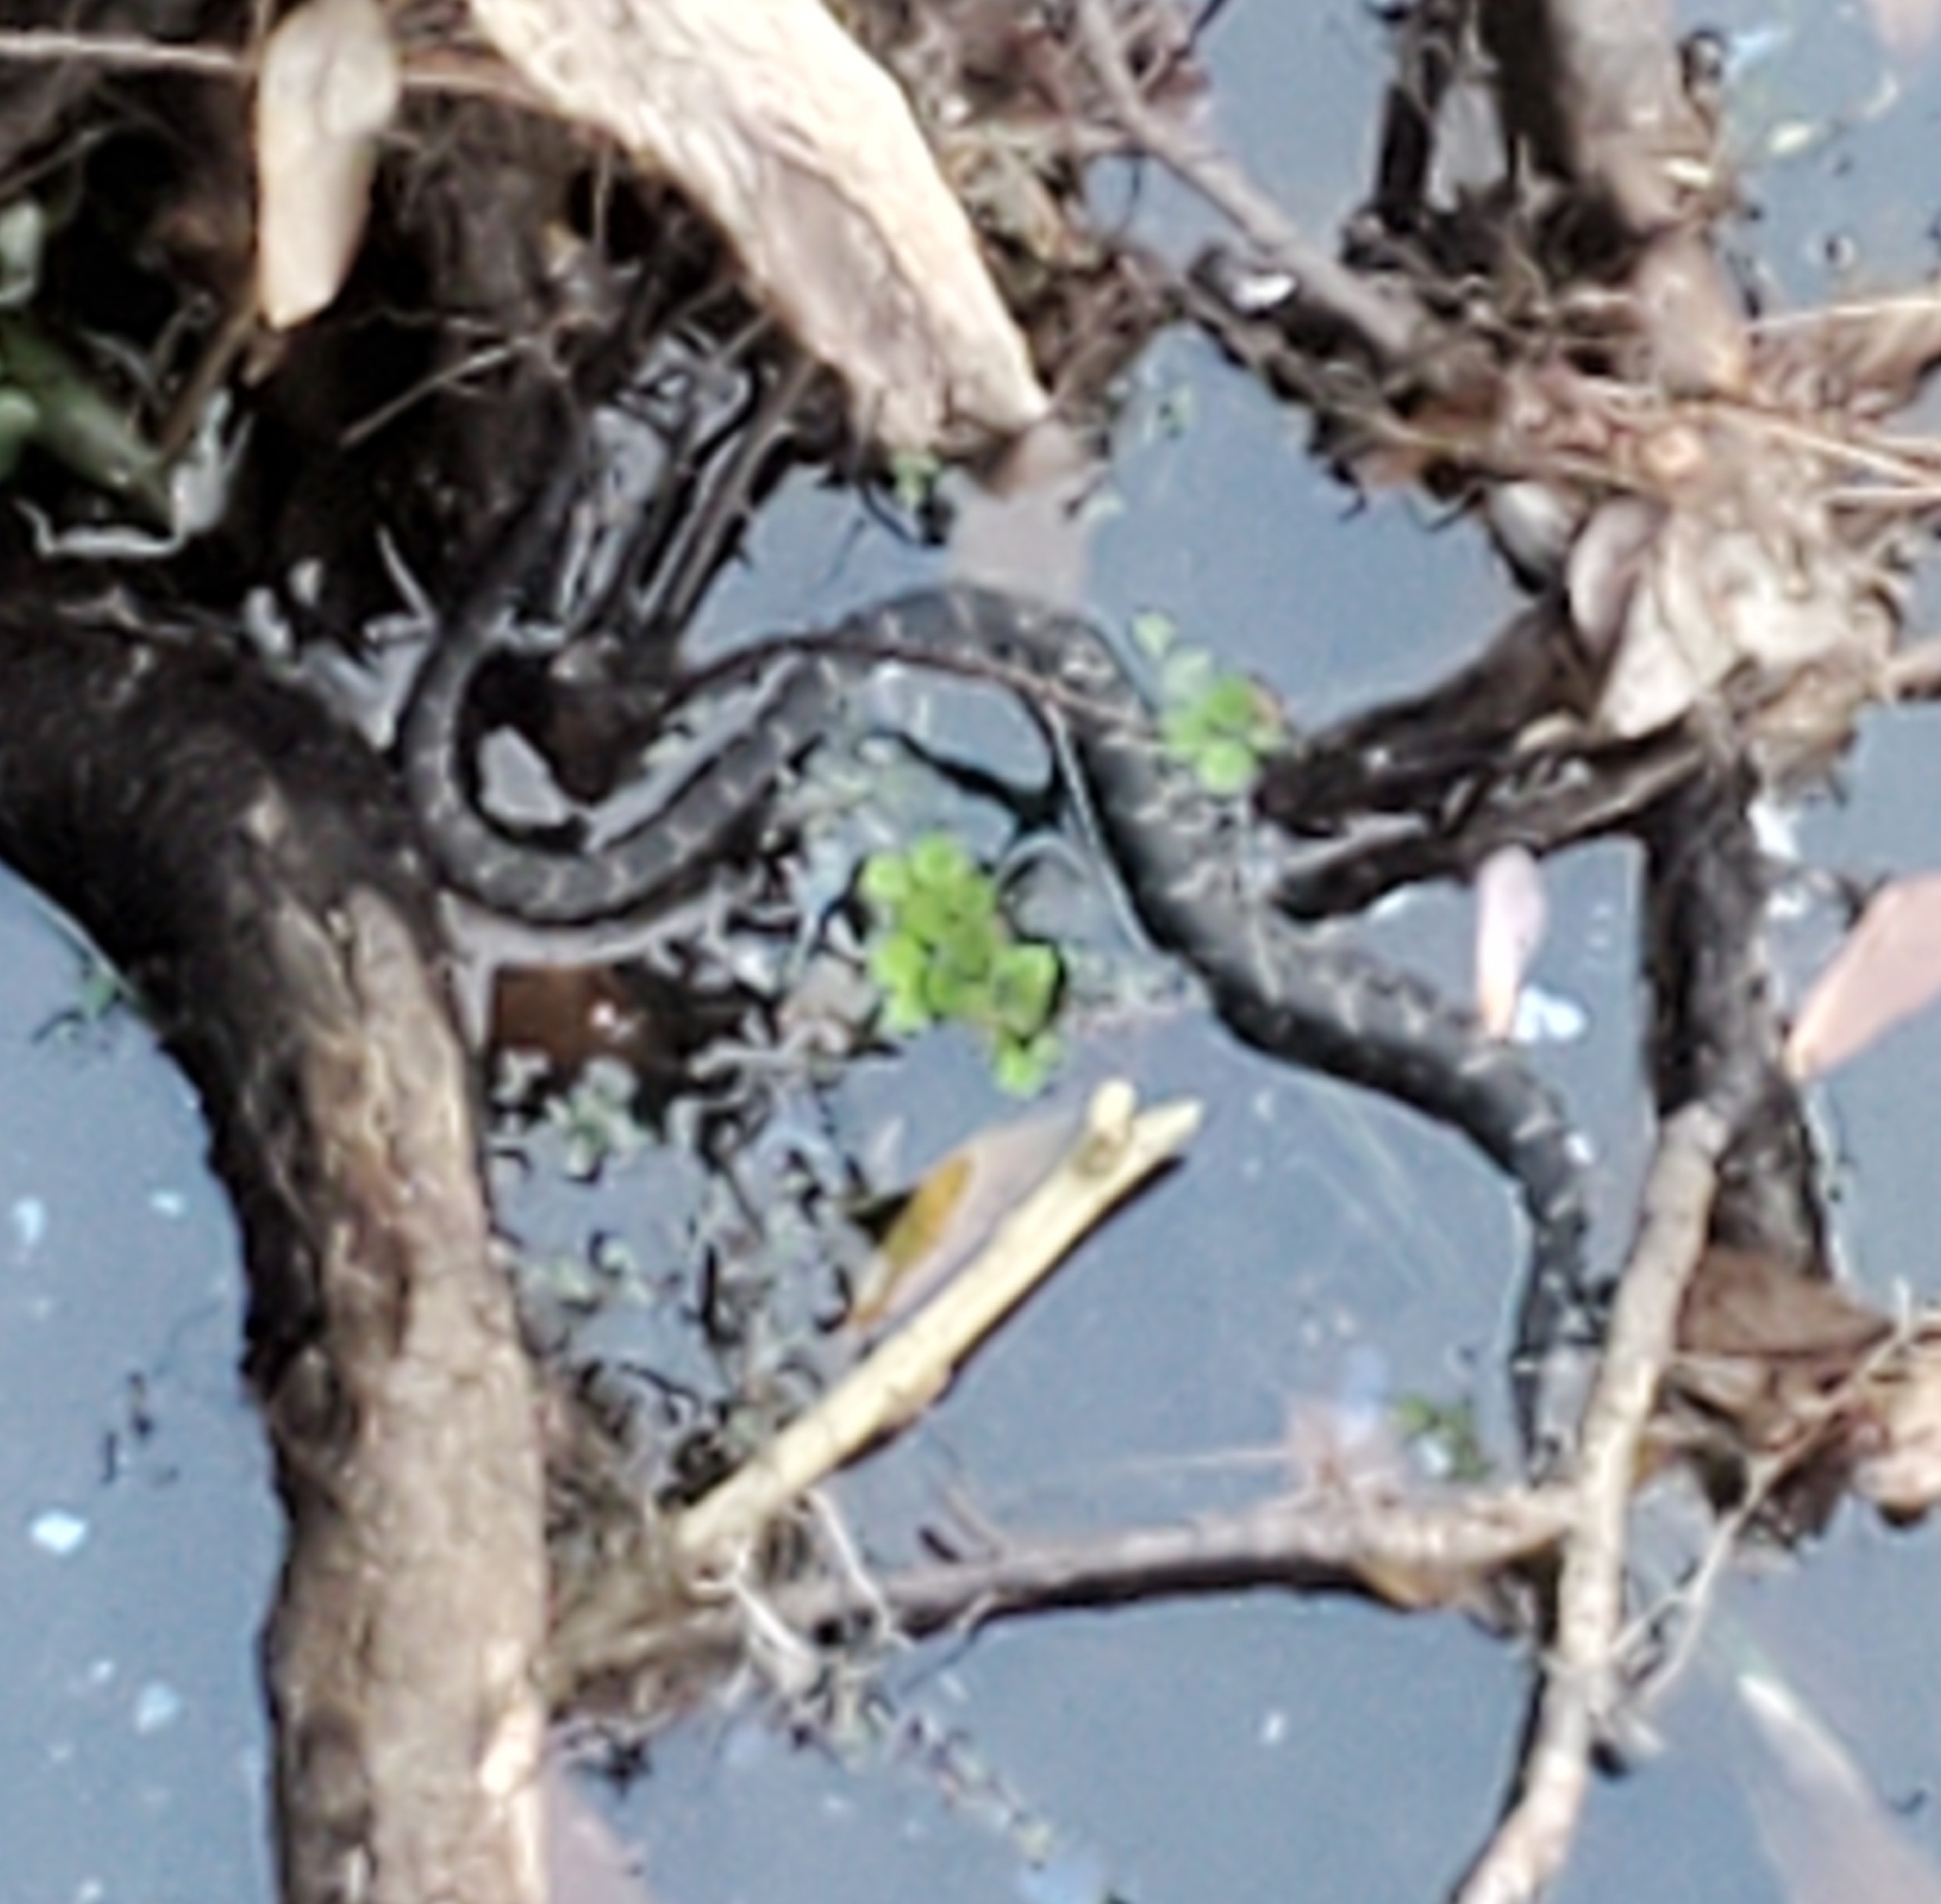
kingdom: Animalia
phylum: Chordata
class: Squamata
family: Colubridae
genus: Nerodia
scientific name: Nerodia fasciata
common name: Southern water snake
